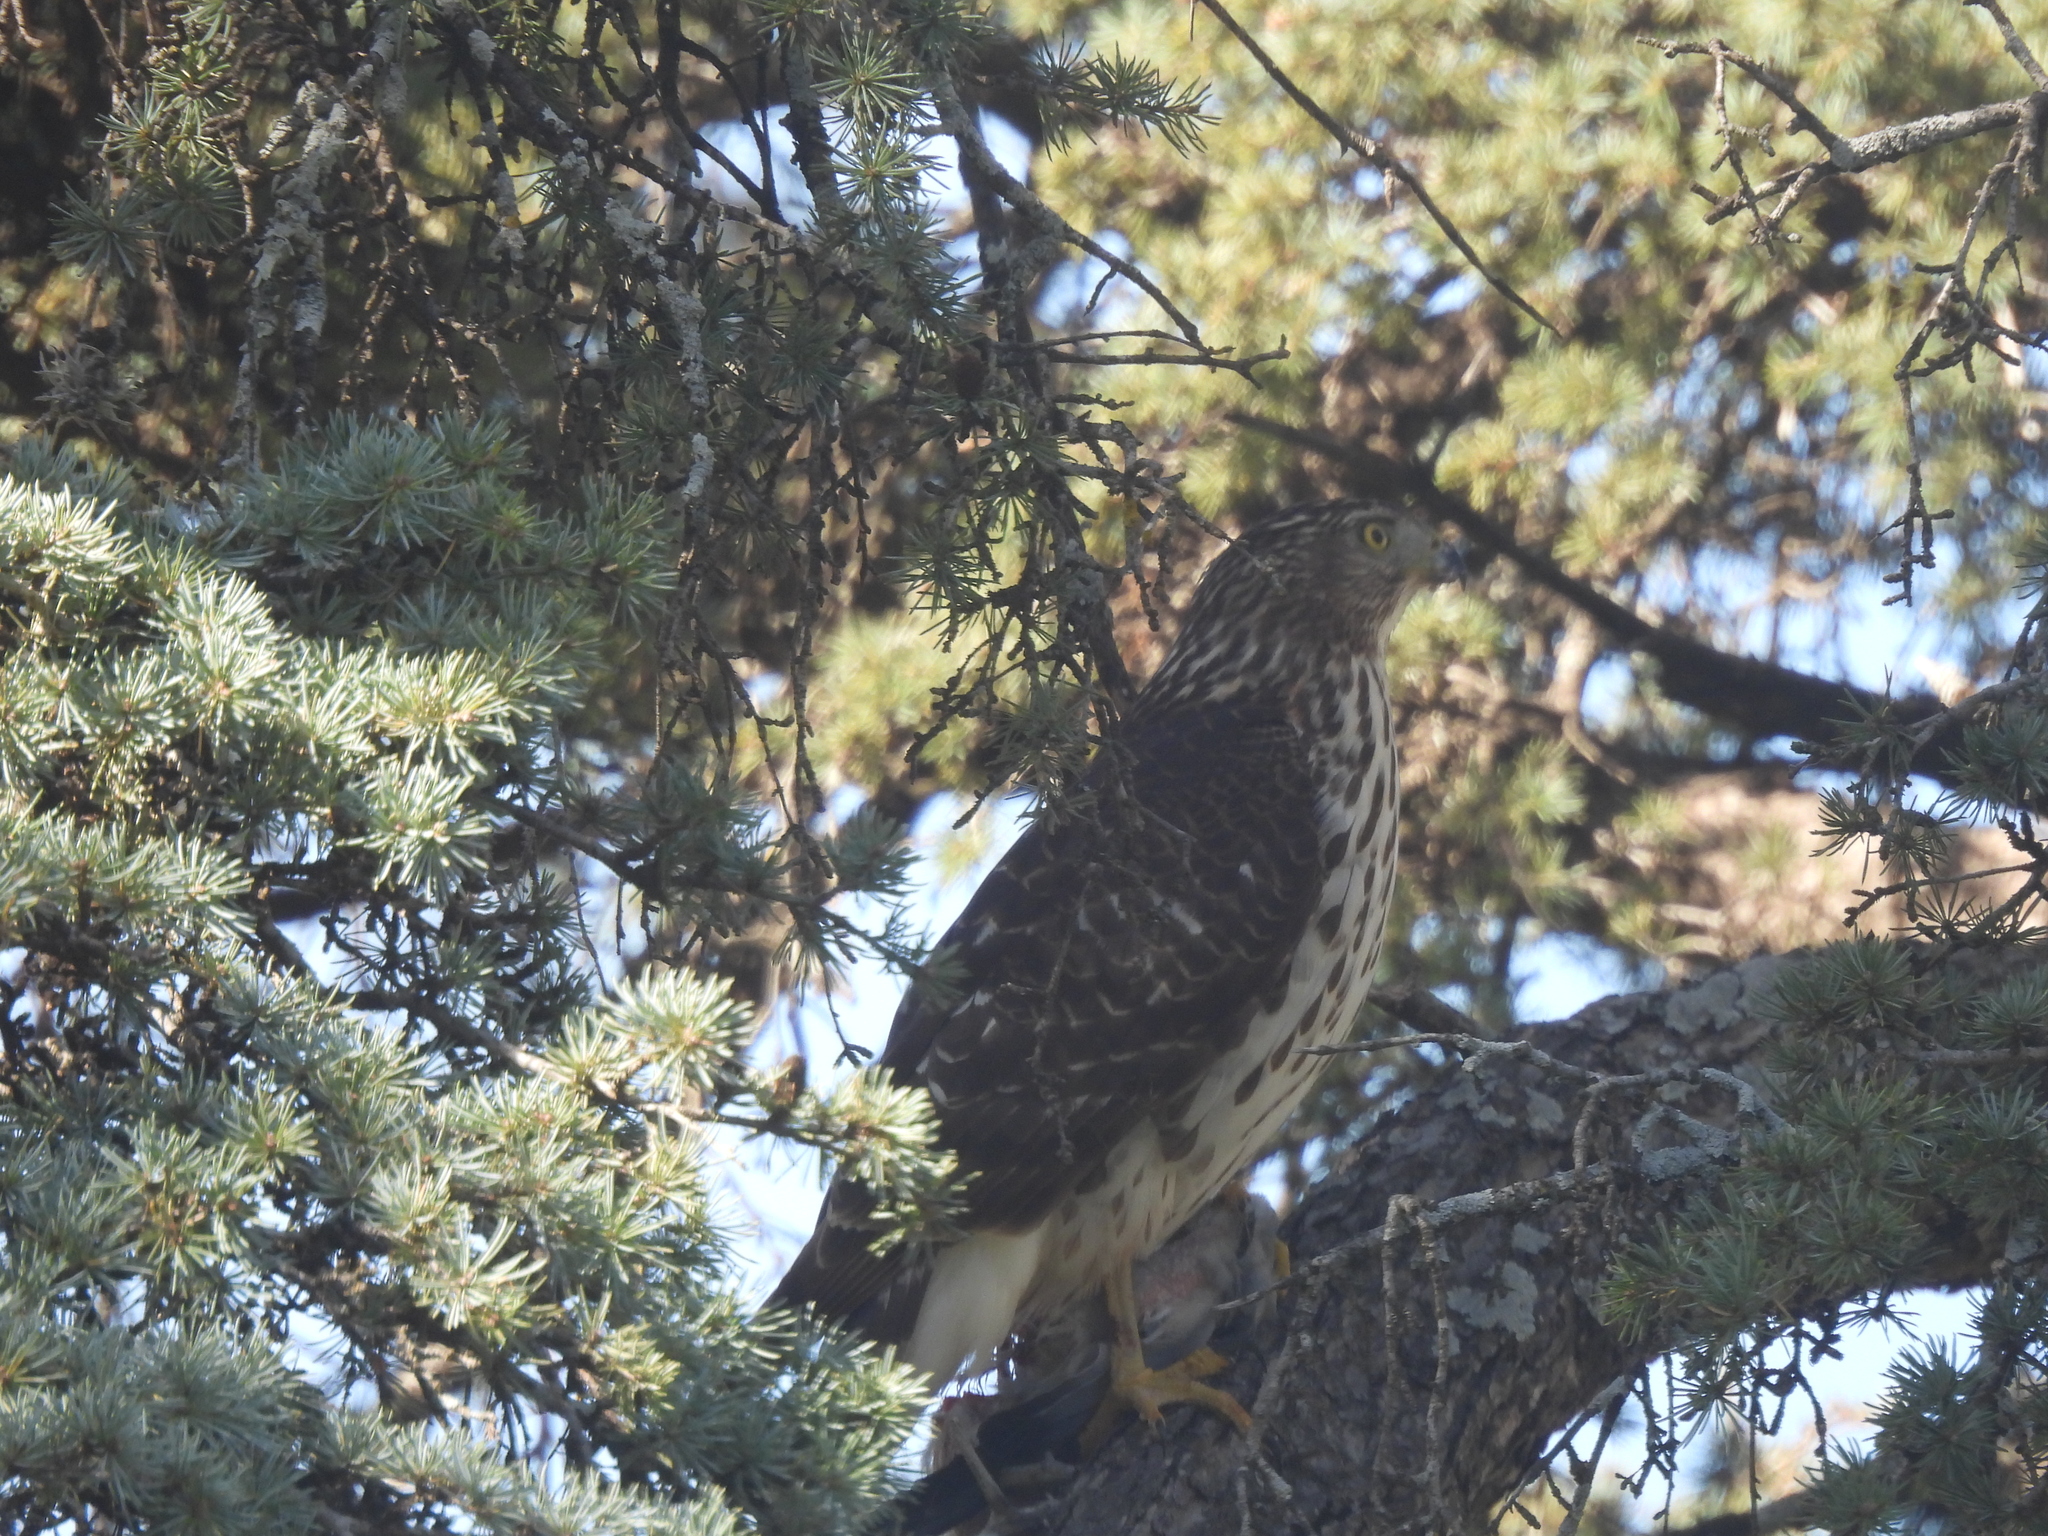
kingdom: Animalia
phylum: Chordata
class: Aves
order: Accipitriformes
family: Accipitridae
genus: Accipiter
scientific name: Accipiter cooperii
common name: Cooper's hawk
